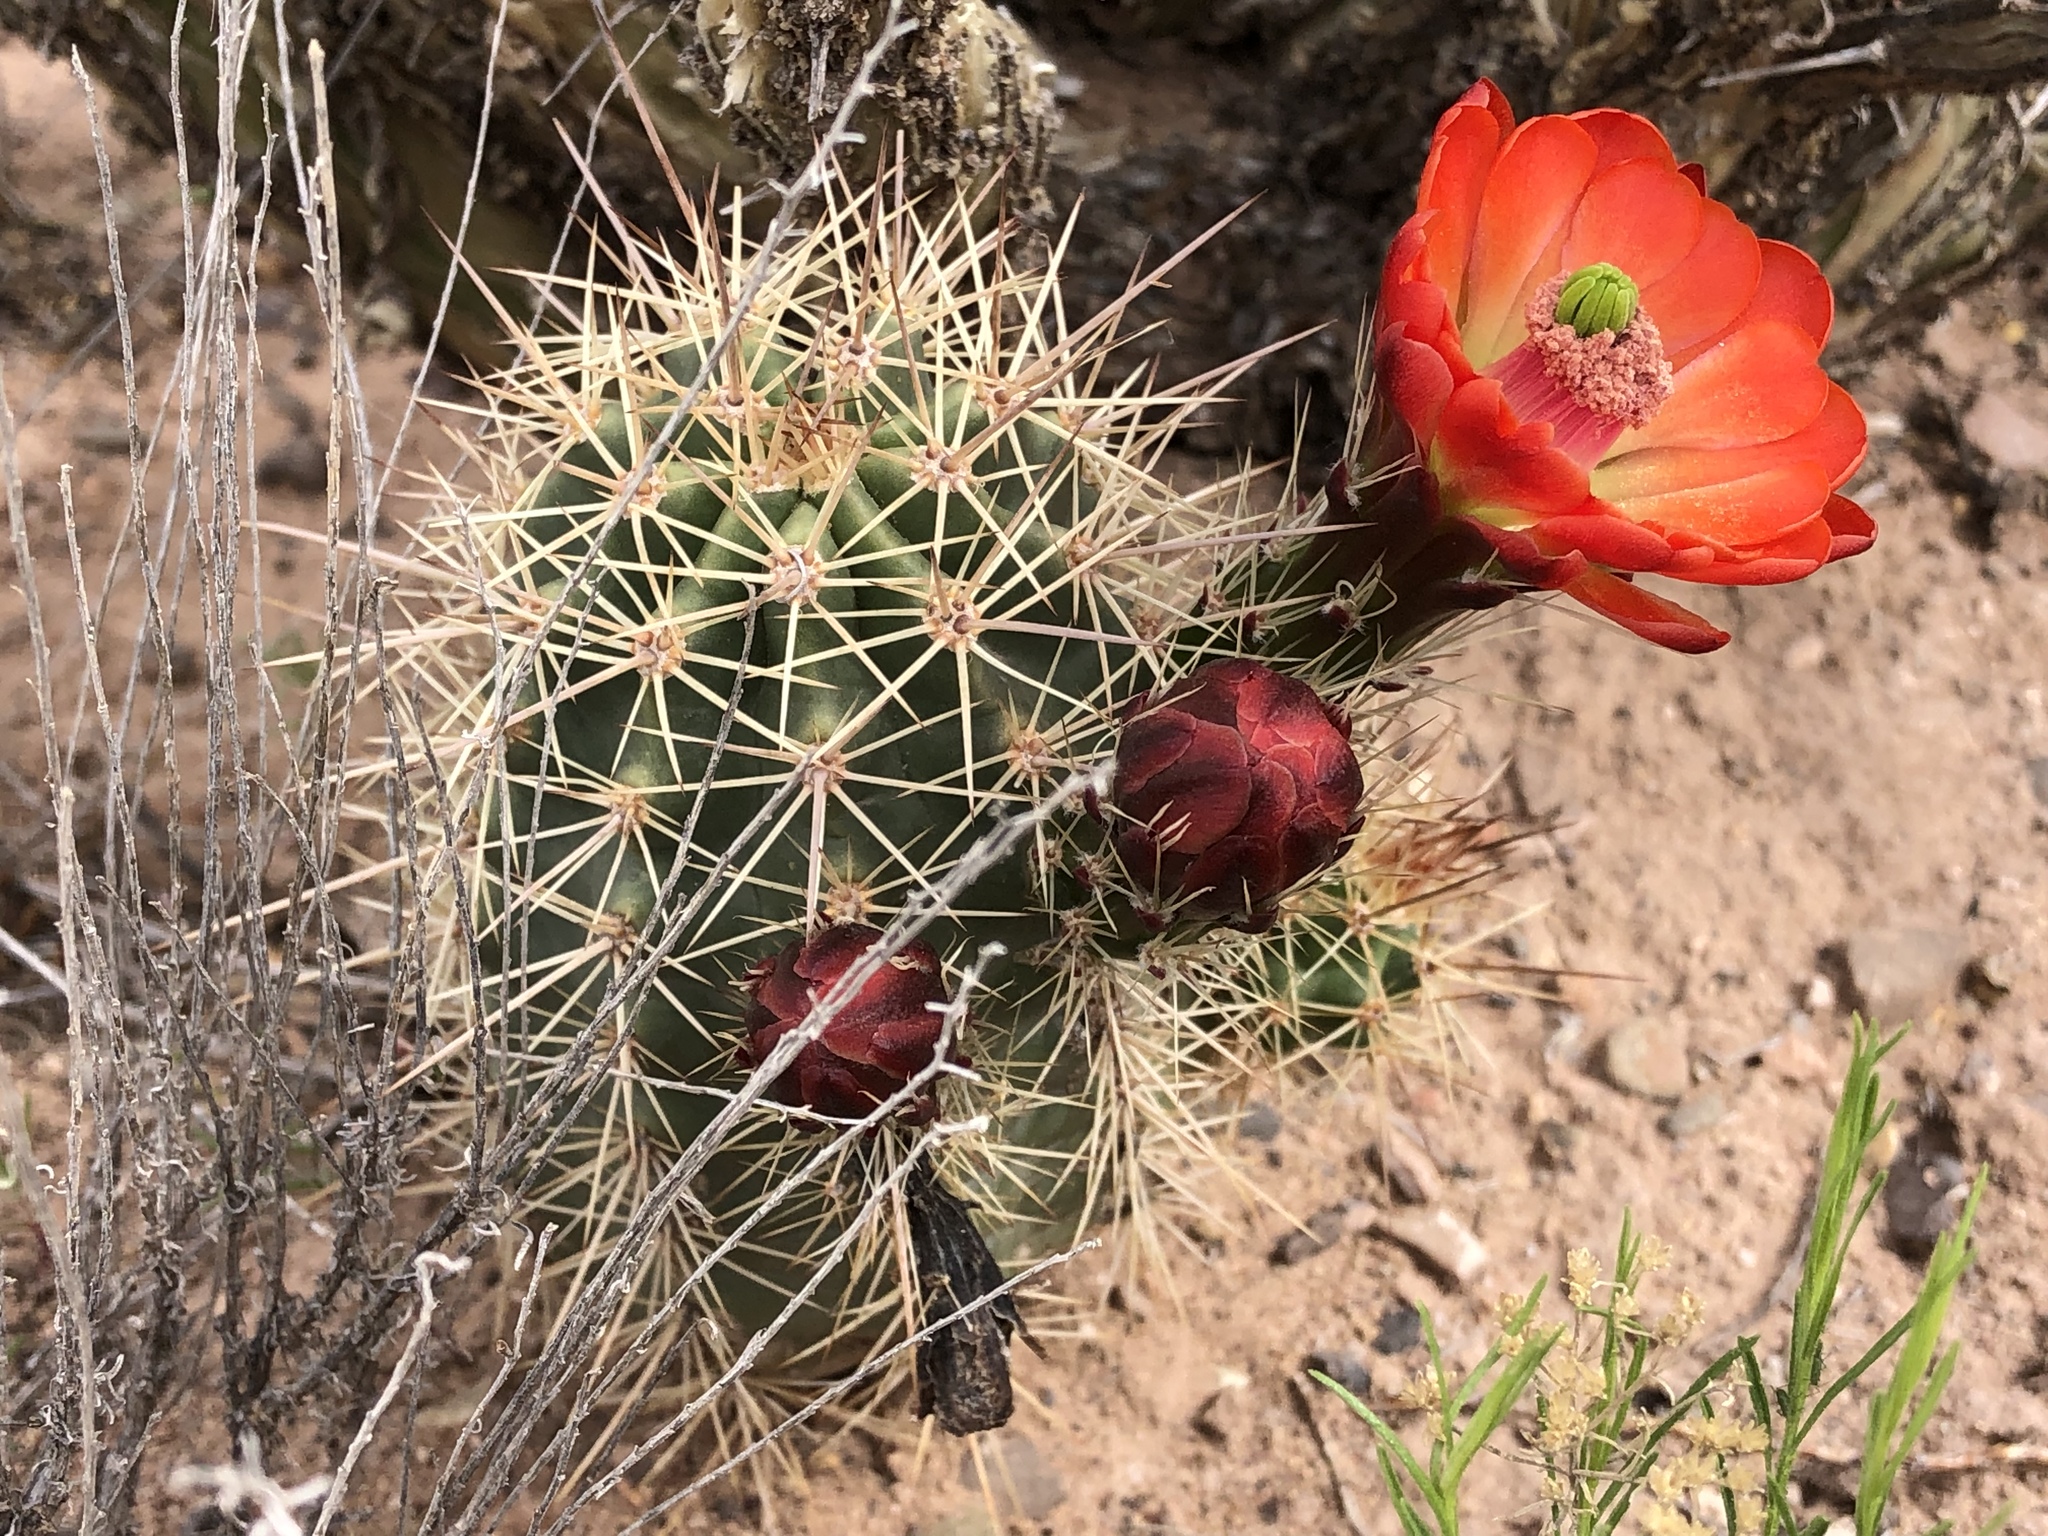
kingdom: Plantae
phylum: Tracheophyta
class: Magnoliopsida
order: Caryophyllales
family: Cactaceae
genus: Echinocereus
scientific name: Echinocereus coccineus
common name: Scarlet hedgehog cactus
